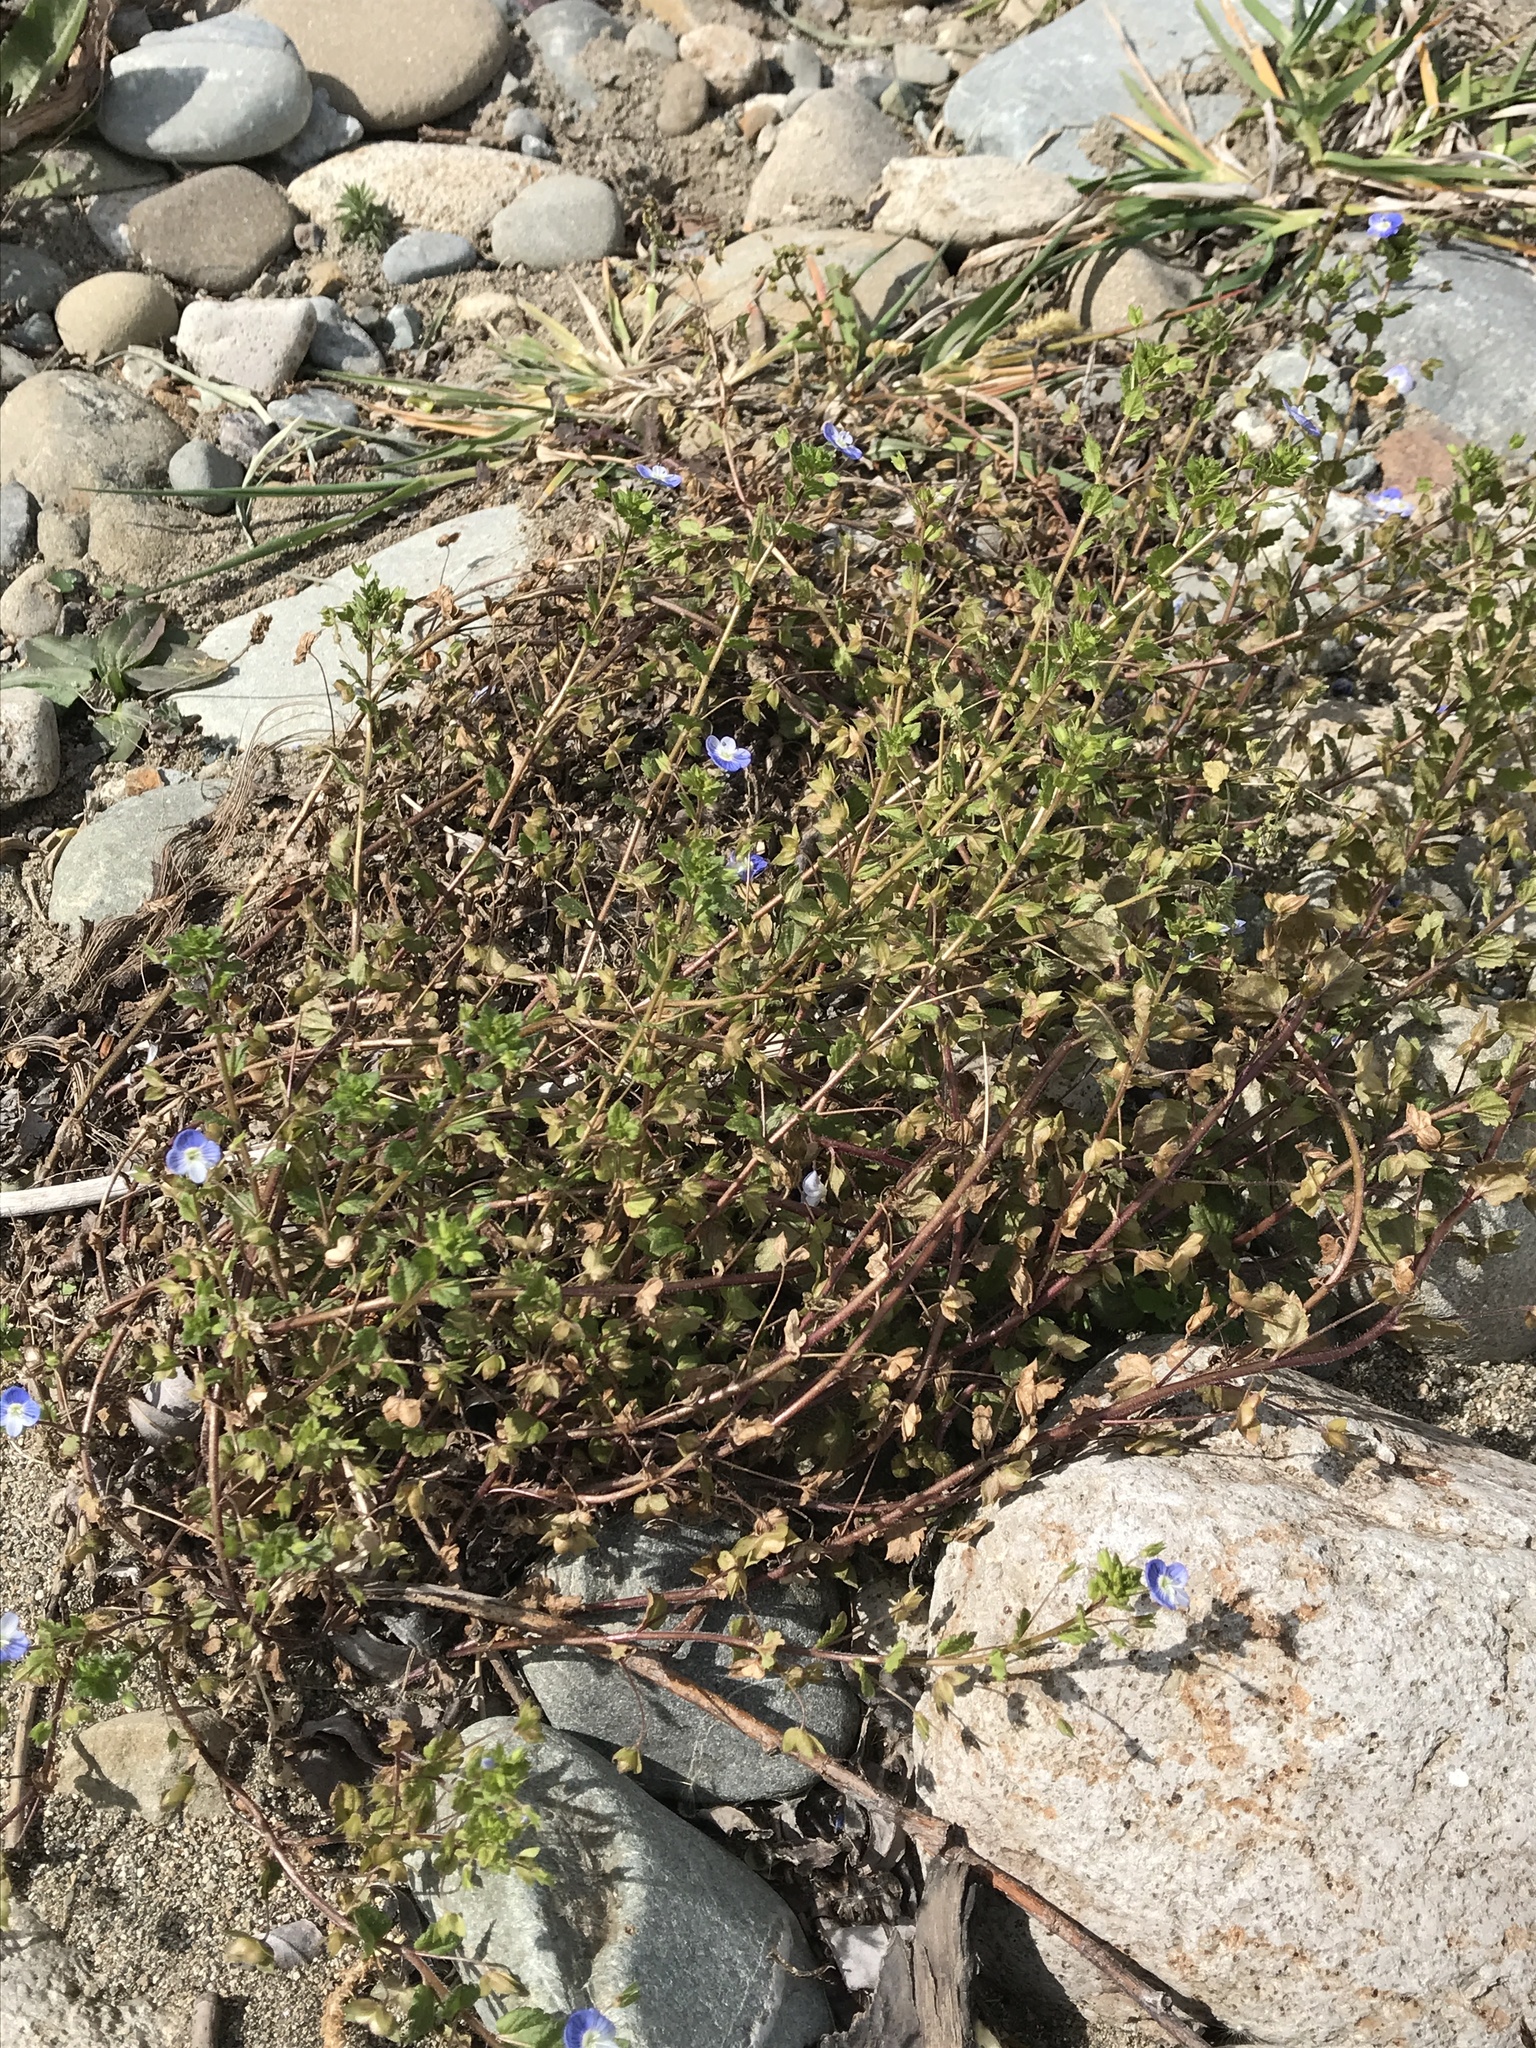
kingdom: Plantae
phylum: Tracheophyta
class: Magnoliopsida
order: Lamiales
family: Plantaginaceae
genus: Veronica
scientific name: Veronica persica
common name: Common field-speedwell
